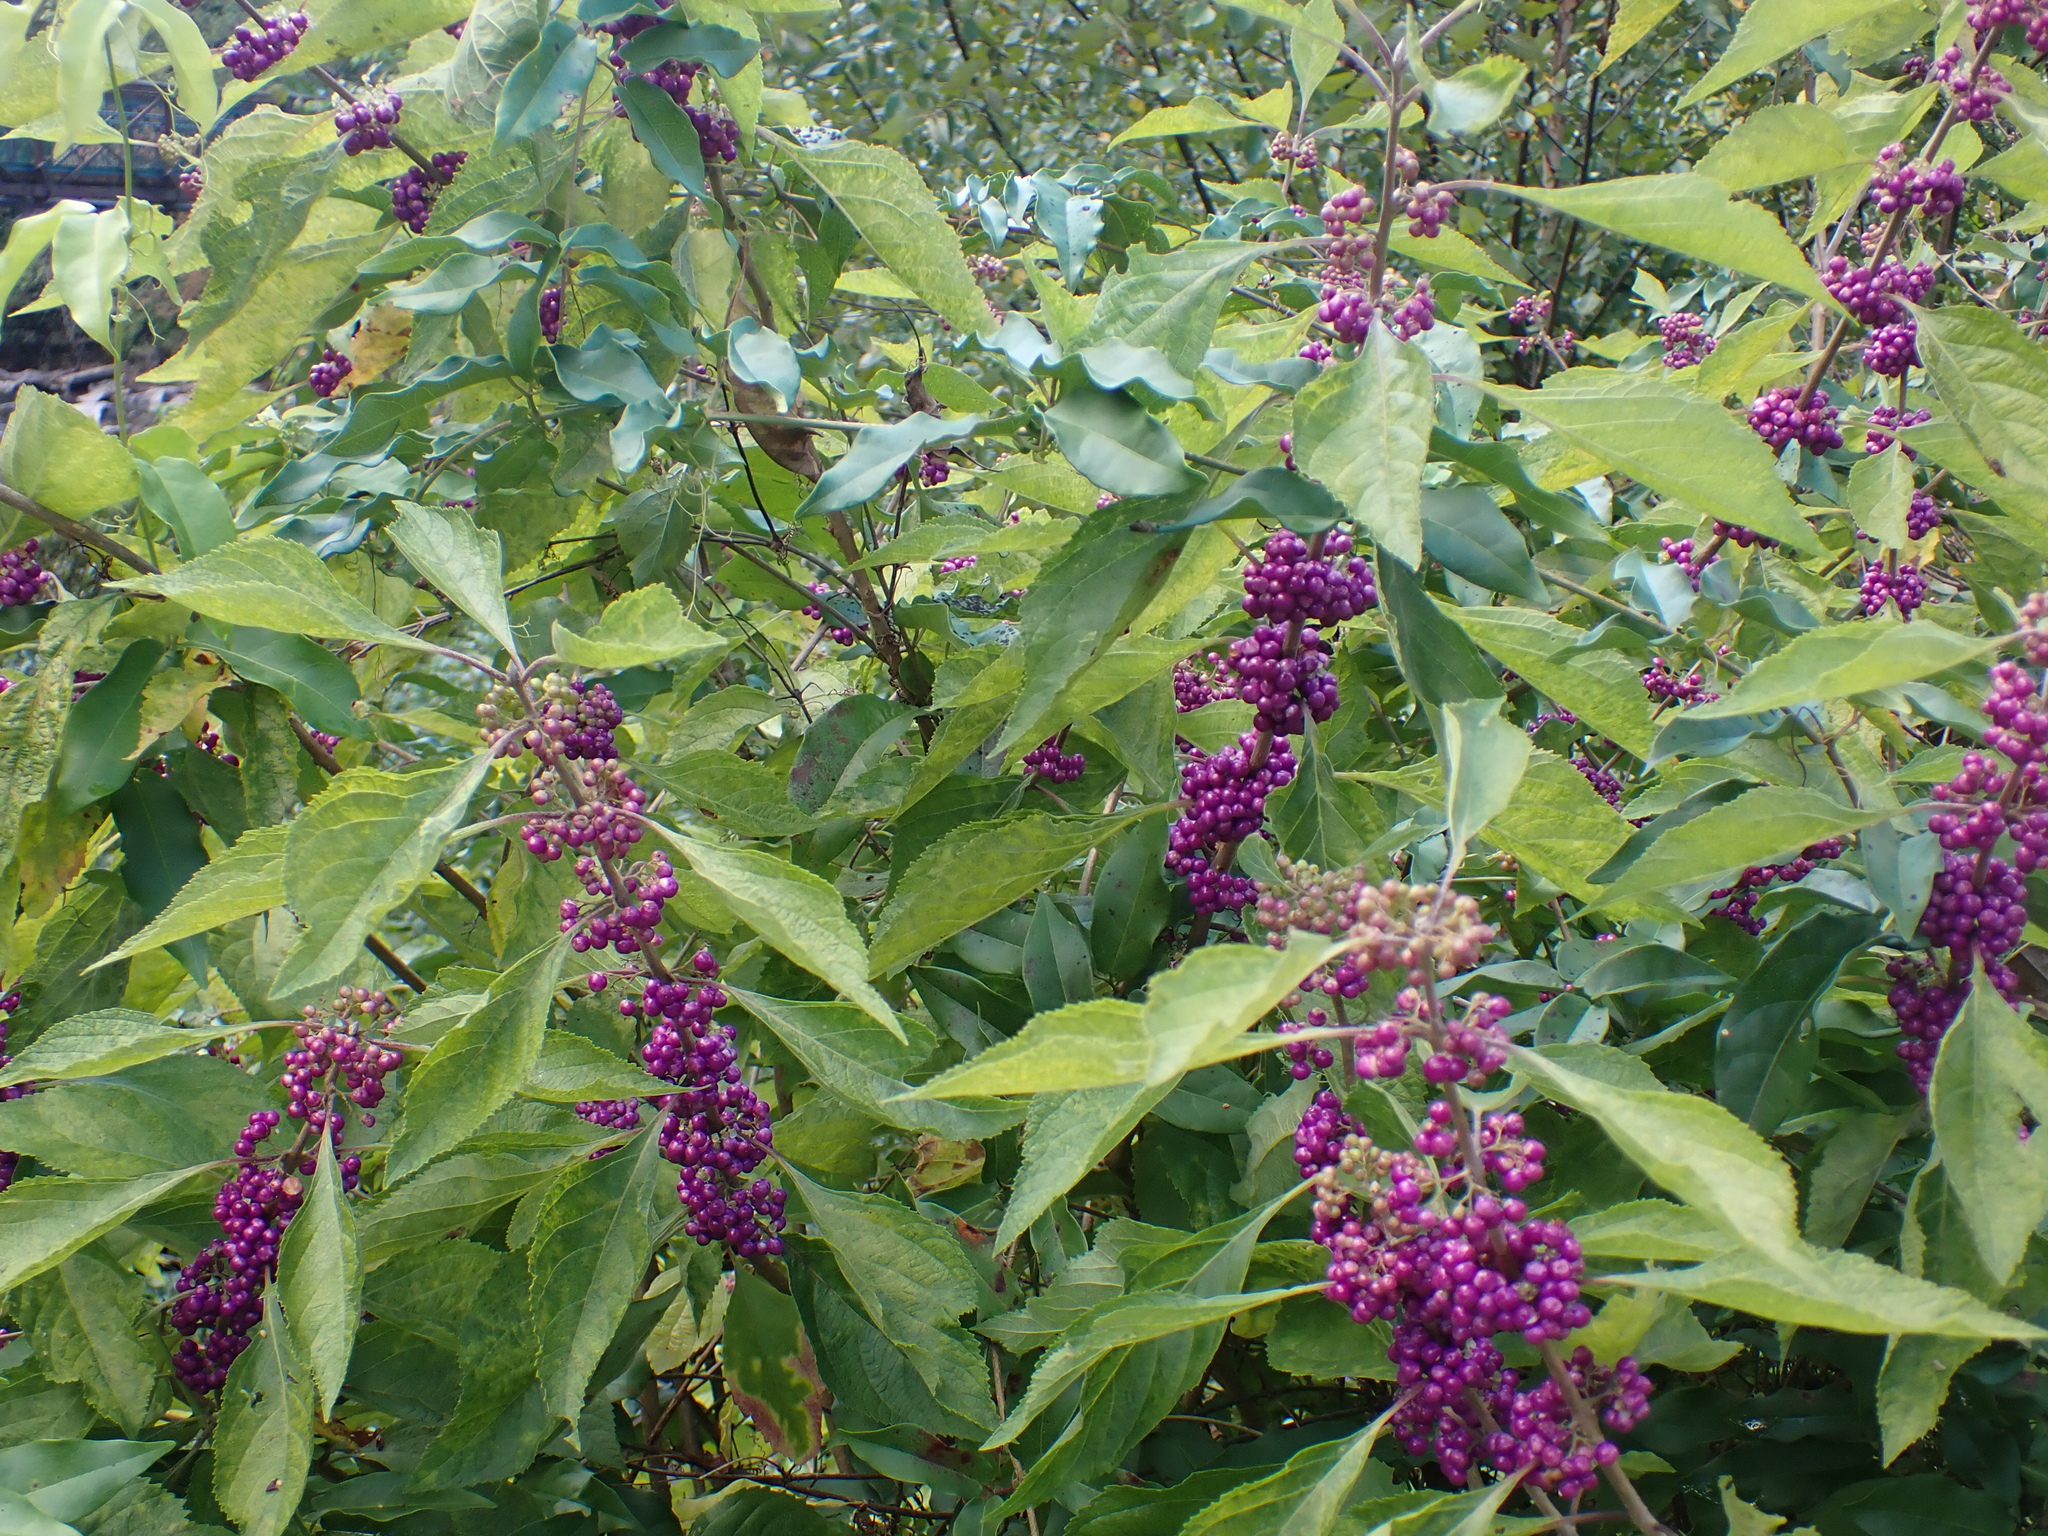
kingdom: Plantae
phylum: Tracheophyta
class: Magnoliopsida
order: Lamiales
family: Lamiaceae
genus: Callicarpa
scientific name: Callicarpa americana
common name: American beautyberry
